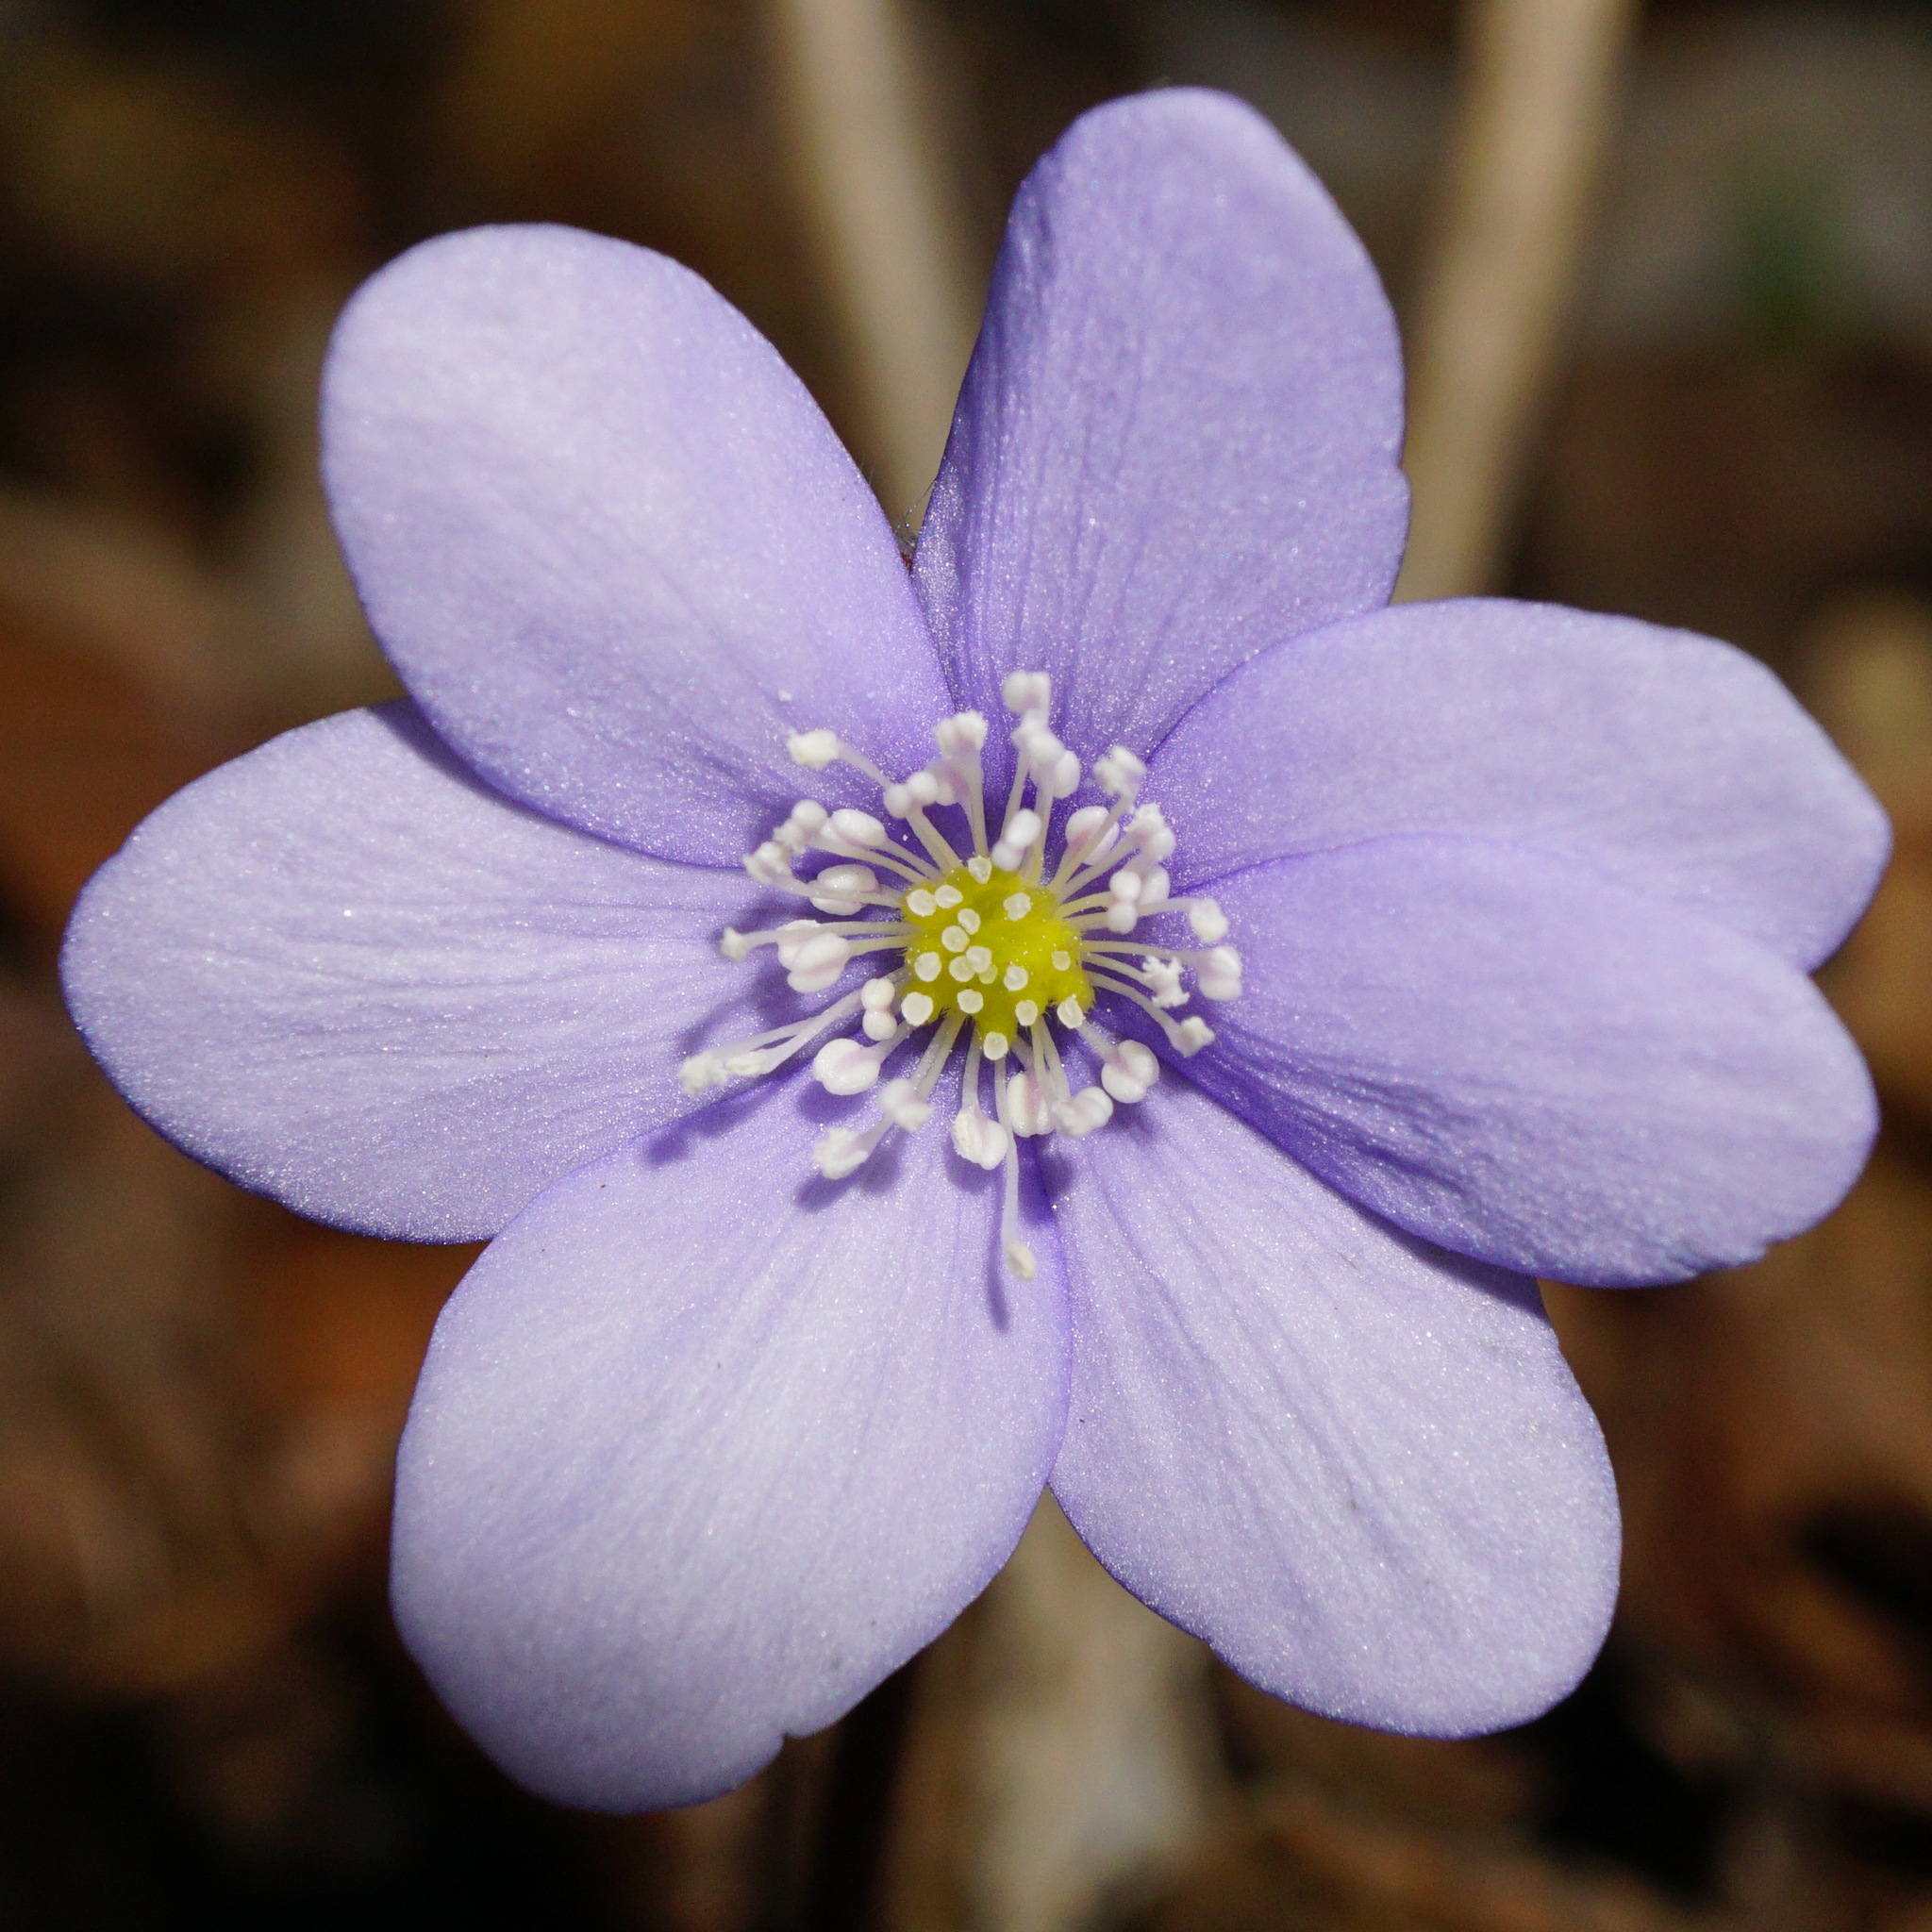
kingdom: Plantae
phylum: Tracheophyta
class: Magnoliopsida
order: Ranunculales
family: Ranunculaceae
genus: Hepatica
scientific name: Hepatica nobilis
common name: Liverleaf
